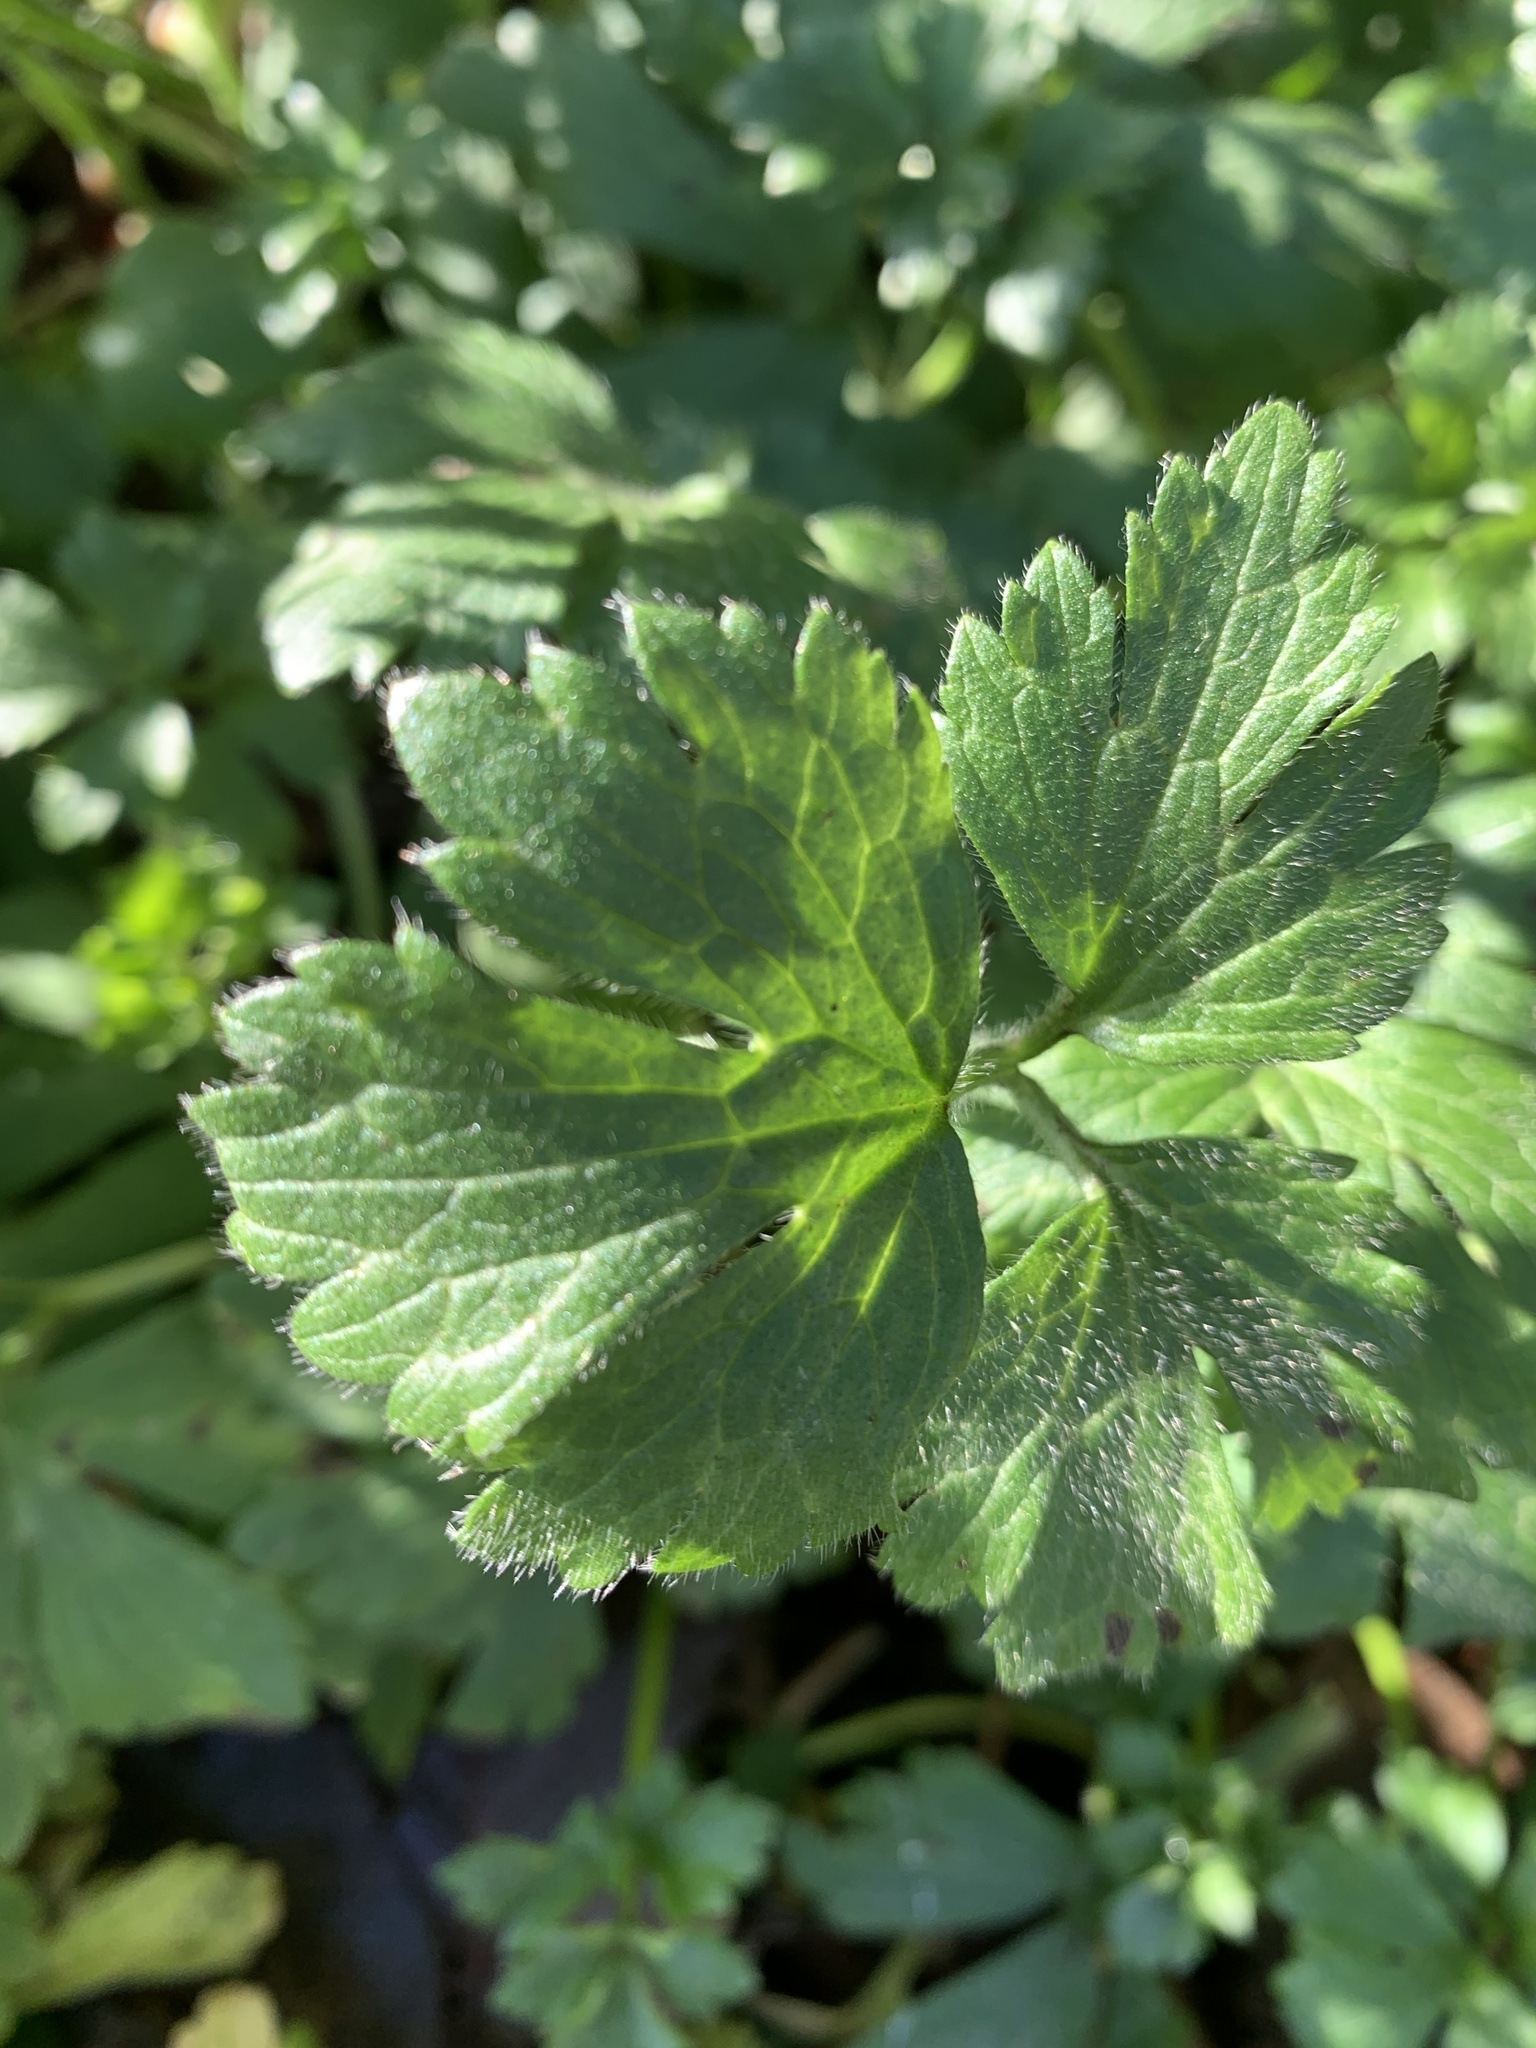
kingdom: Plantae
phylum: Tracheophyta
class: Magnoliopsida
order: Ranunculales
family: Ranunculaceae
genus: Ranunculus
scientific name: Ranunculus repens
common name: Creeping buttercup
